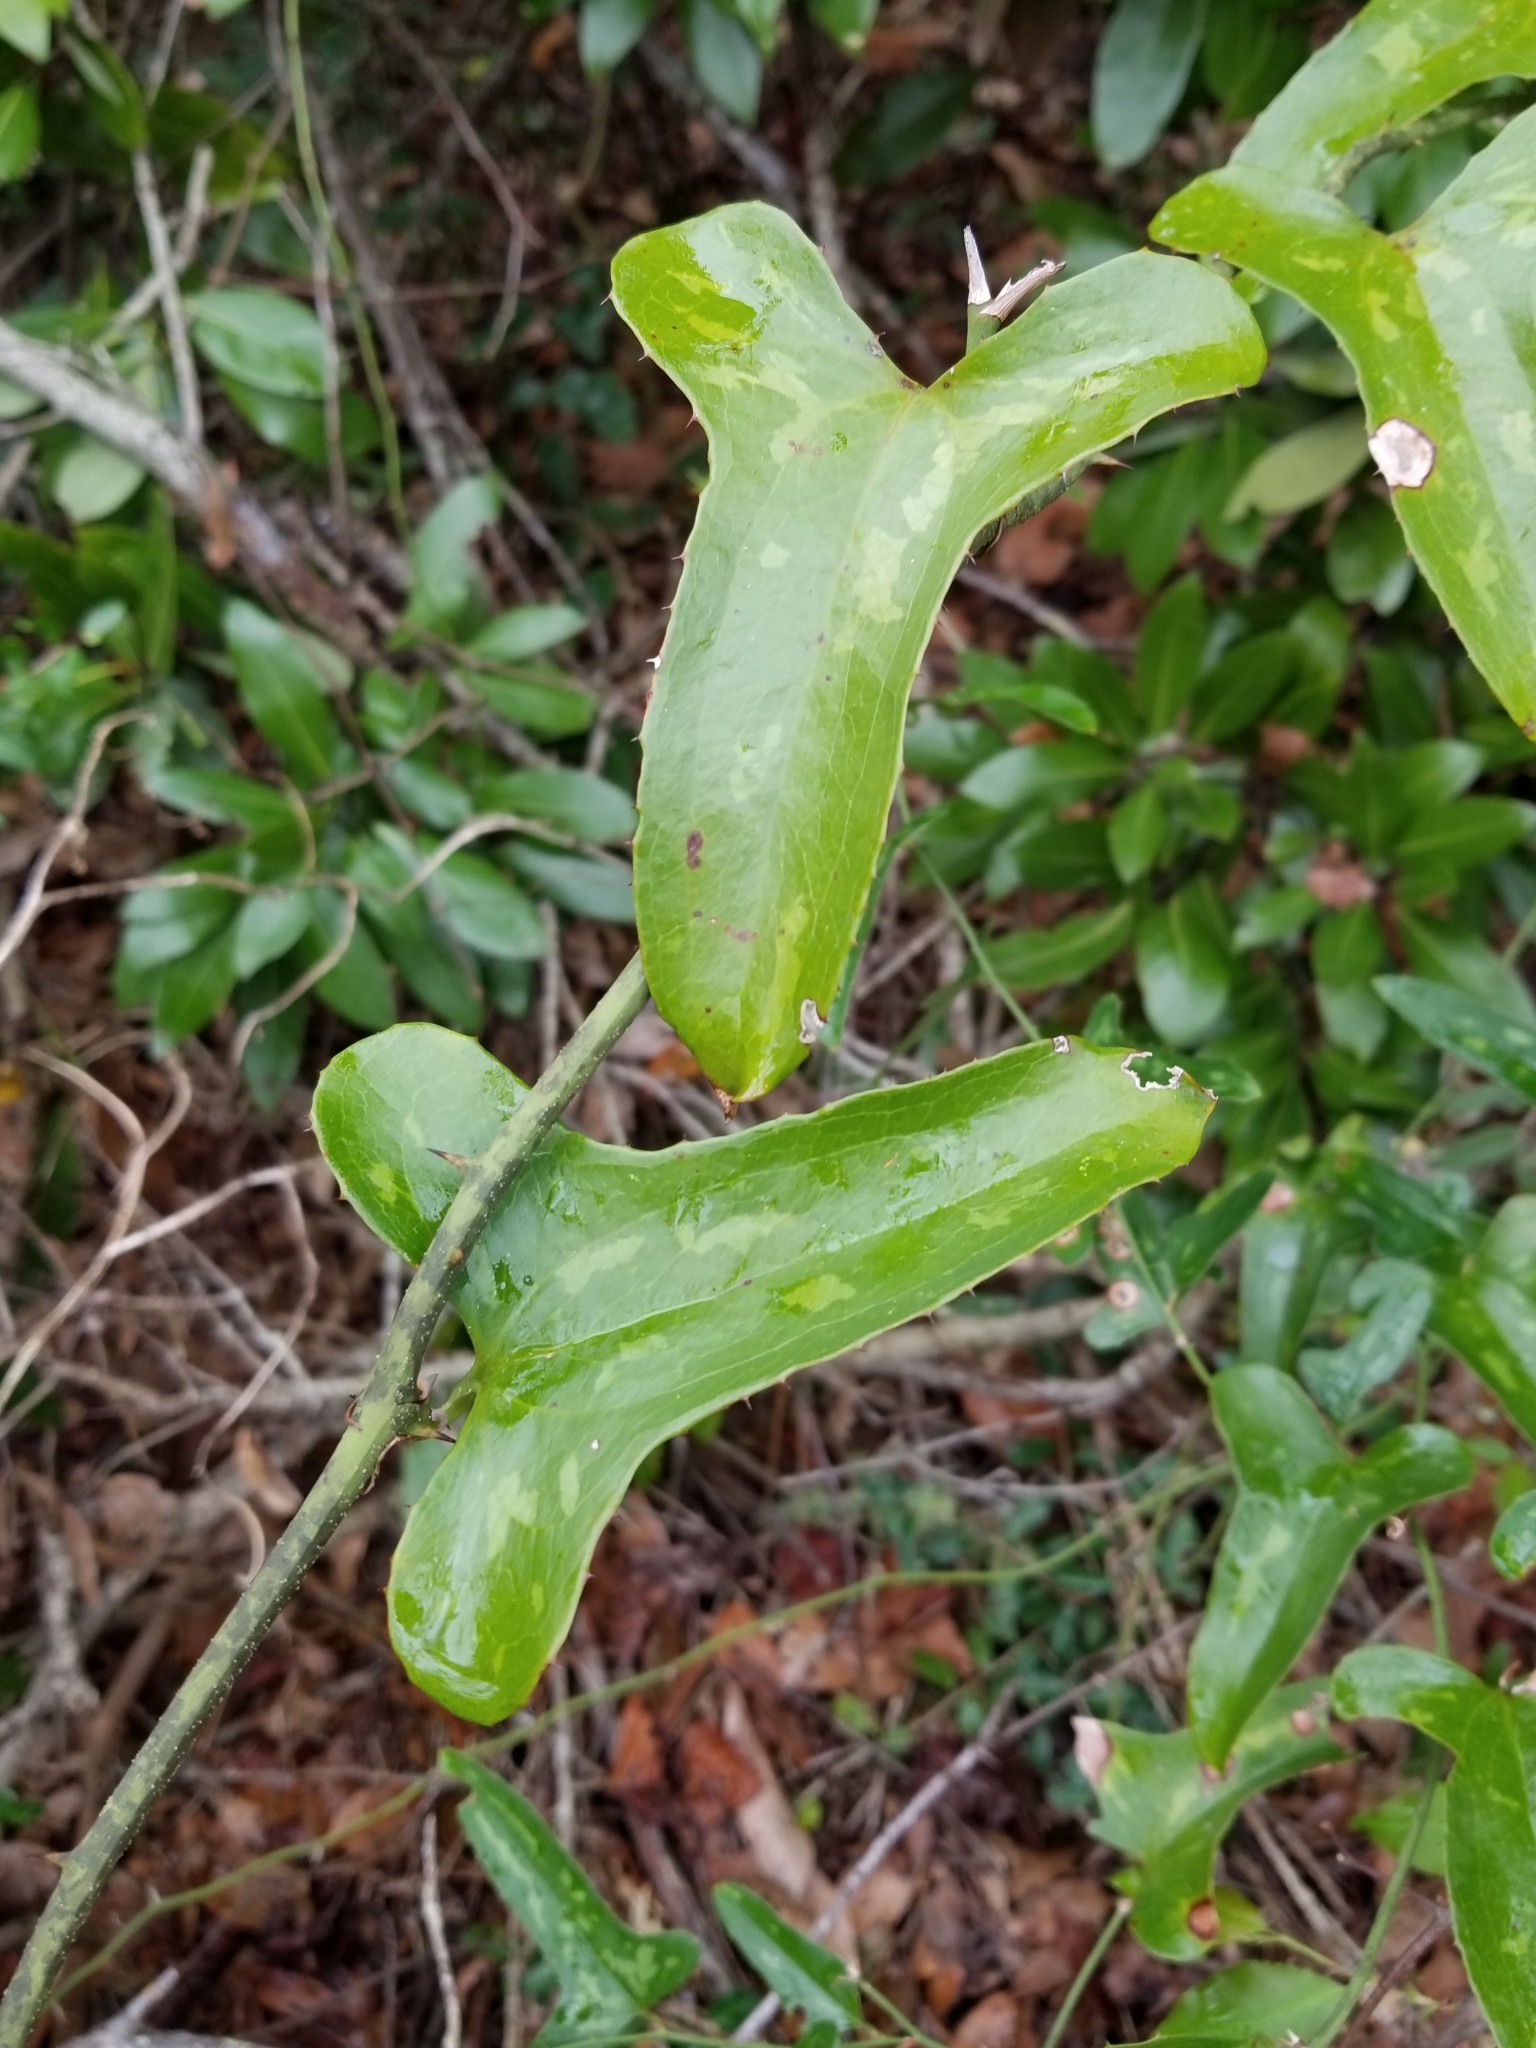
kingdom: Plantae
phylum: Tracheophyta
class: Liliopsida
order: Liliales
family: Smilacaceae
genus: Smilax
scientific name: Smilax bona-nox
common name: Catbrier
